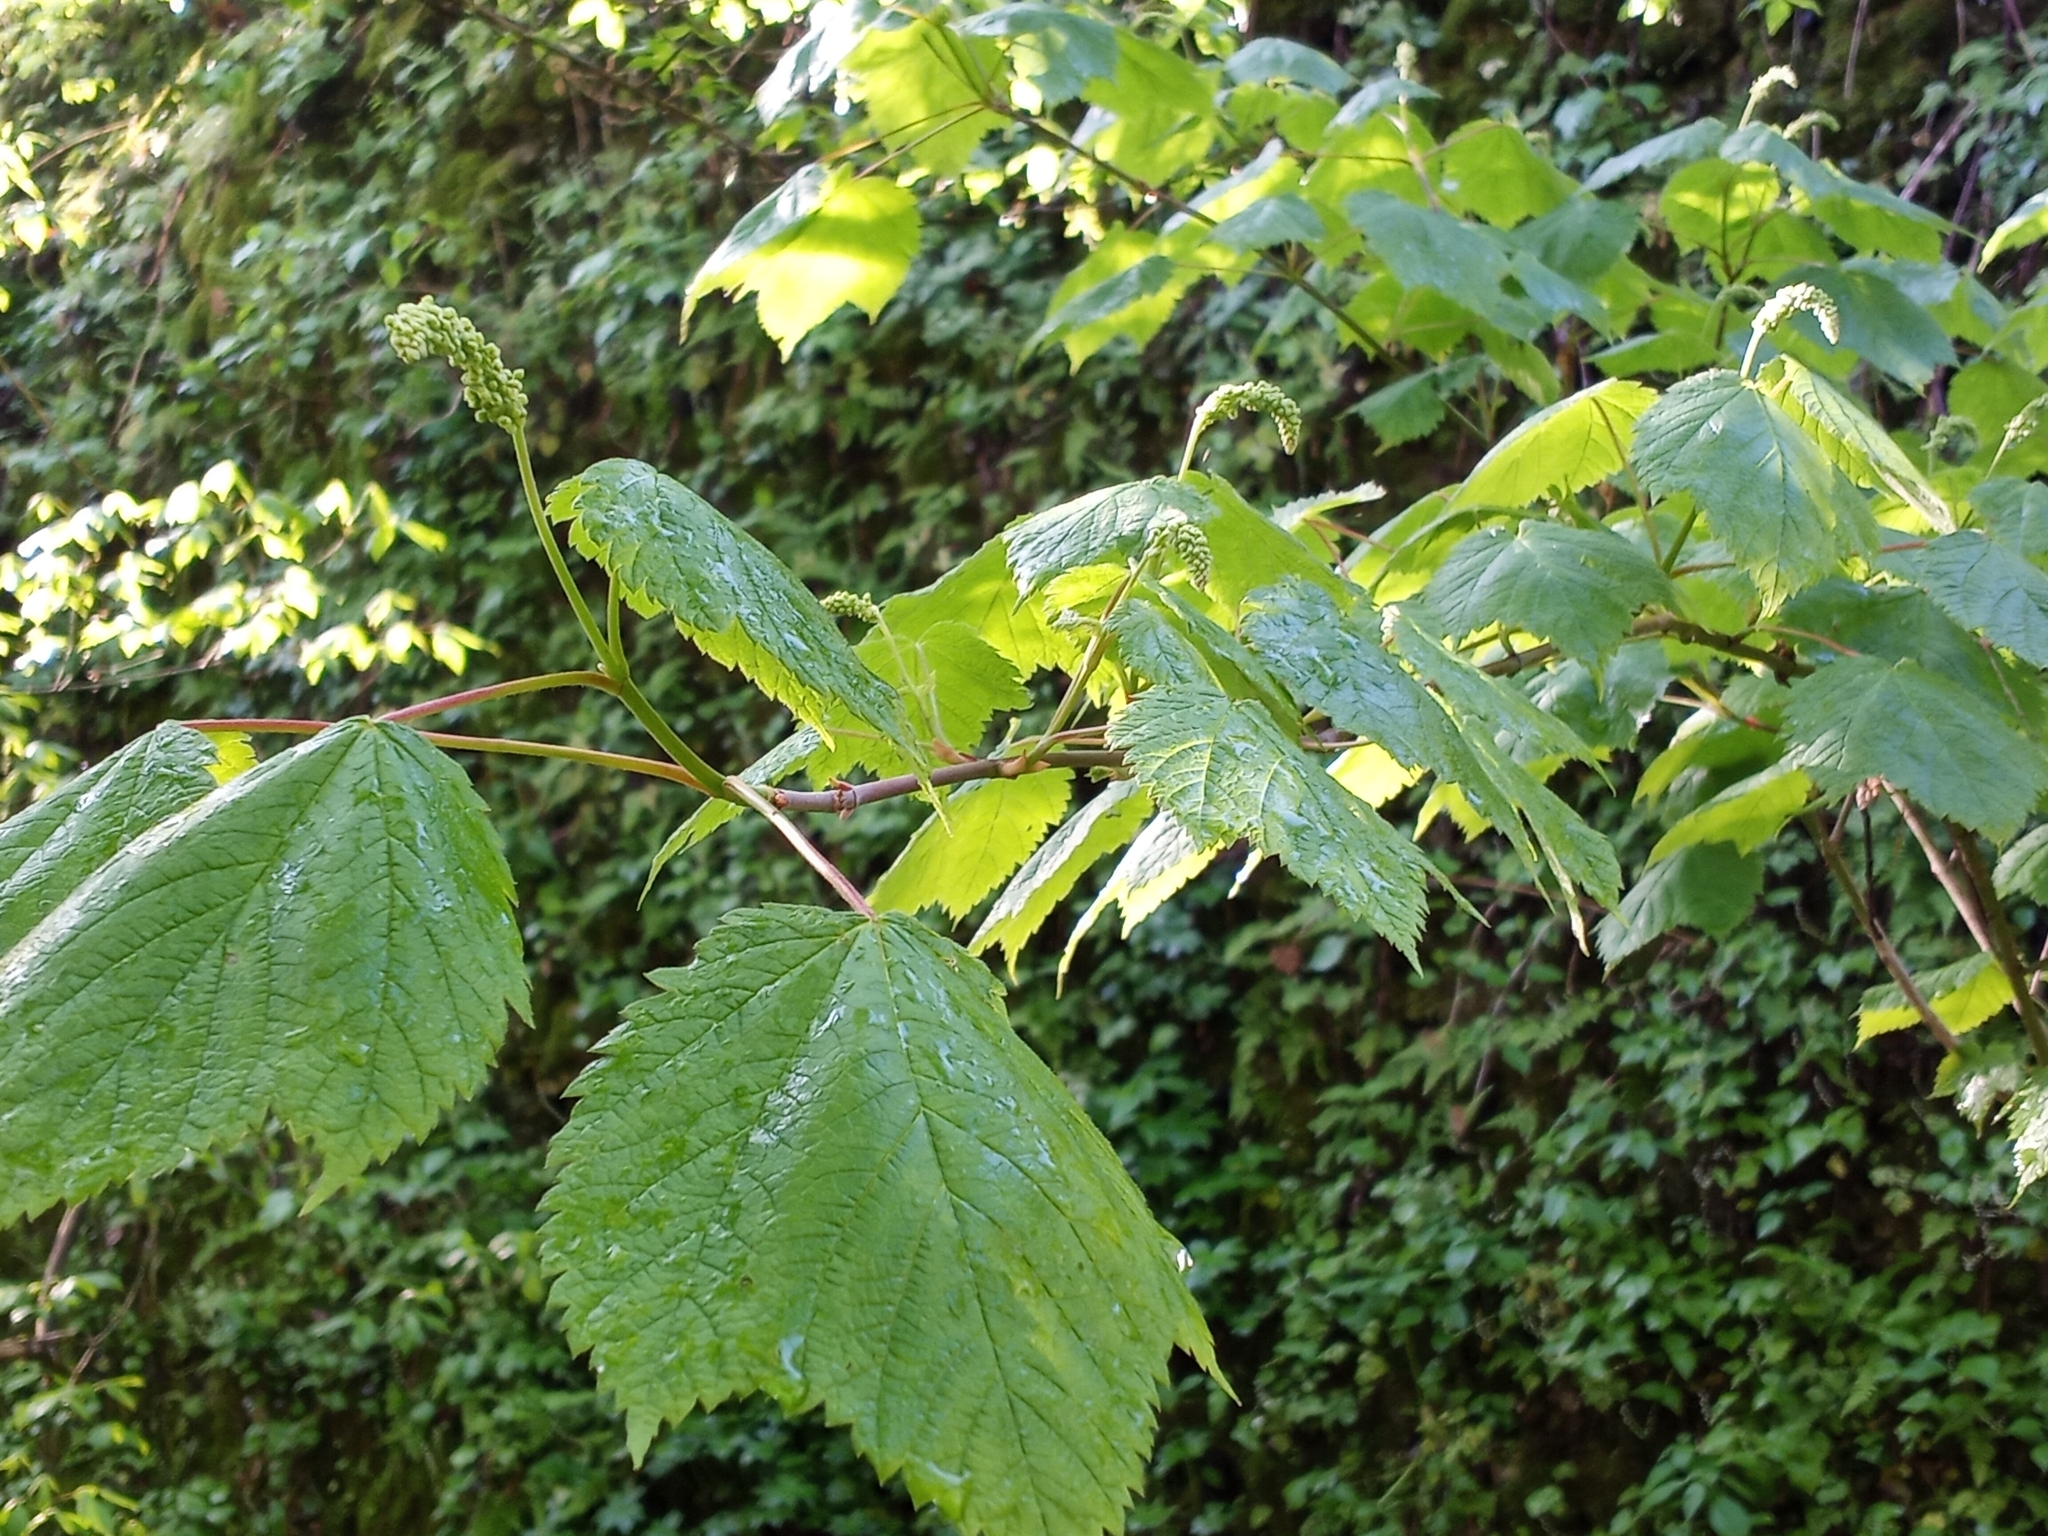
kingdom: Plantae
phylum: Tracheophyta
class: Magnoliopsida
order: Sapindales
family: Sapindaceae
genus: Acer
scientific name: Acer spicatum
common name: Mountain maple
